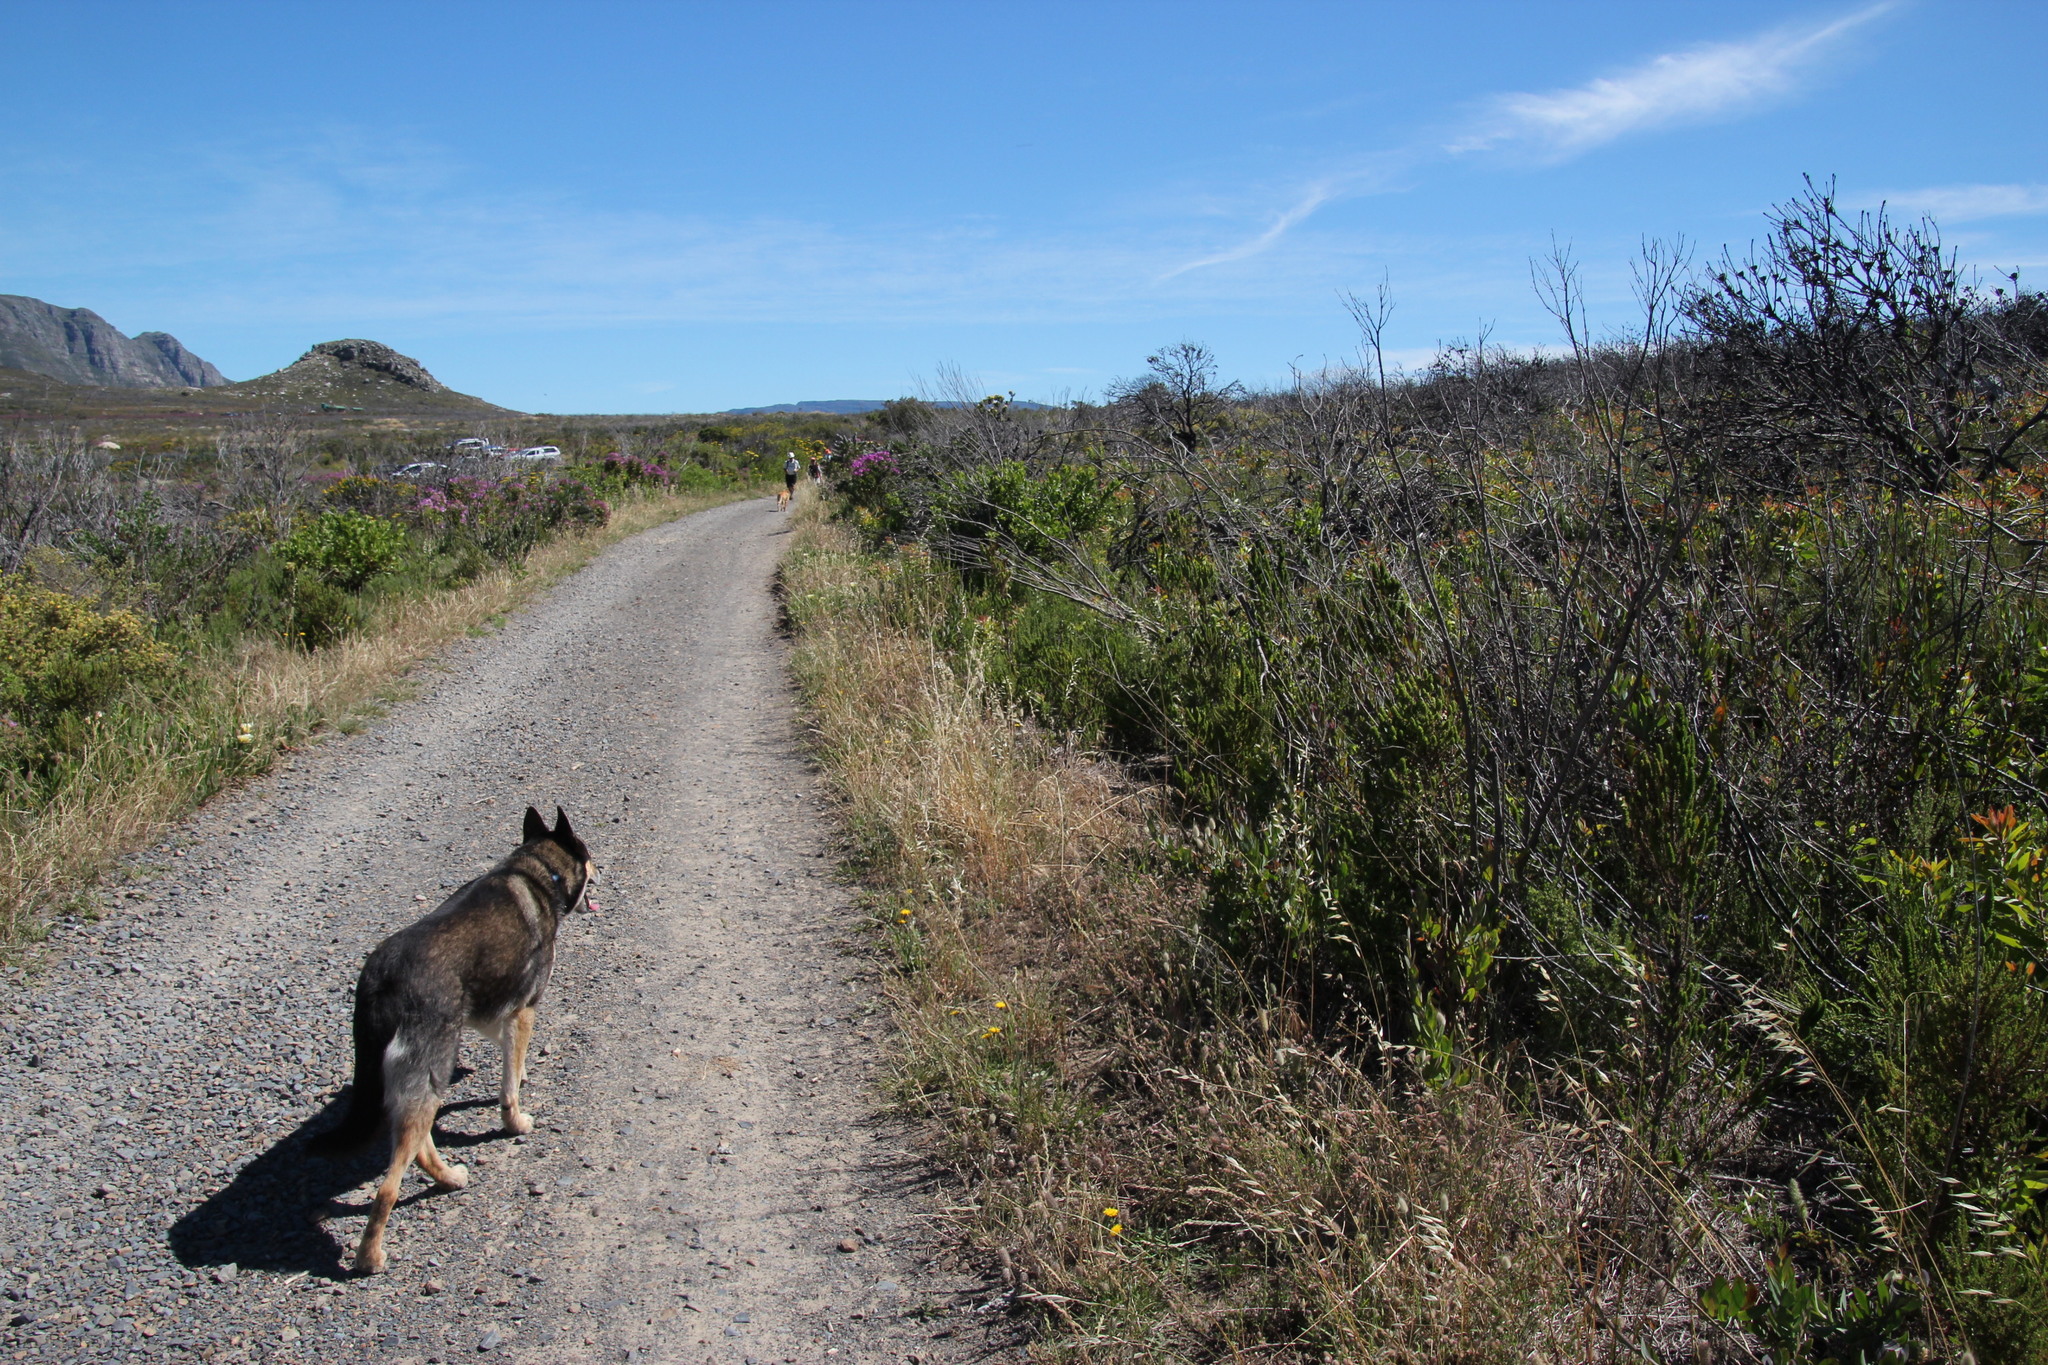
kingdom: Plantae
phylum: Tracheophyta
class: Liliopsida
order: Poales
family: Poaceae
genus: Avena
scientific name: Avena fatua
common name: Wild oat
